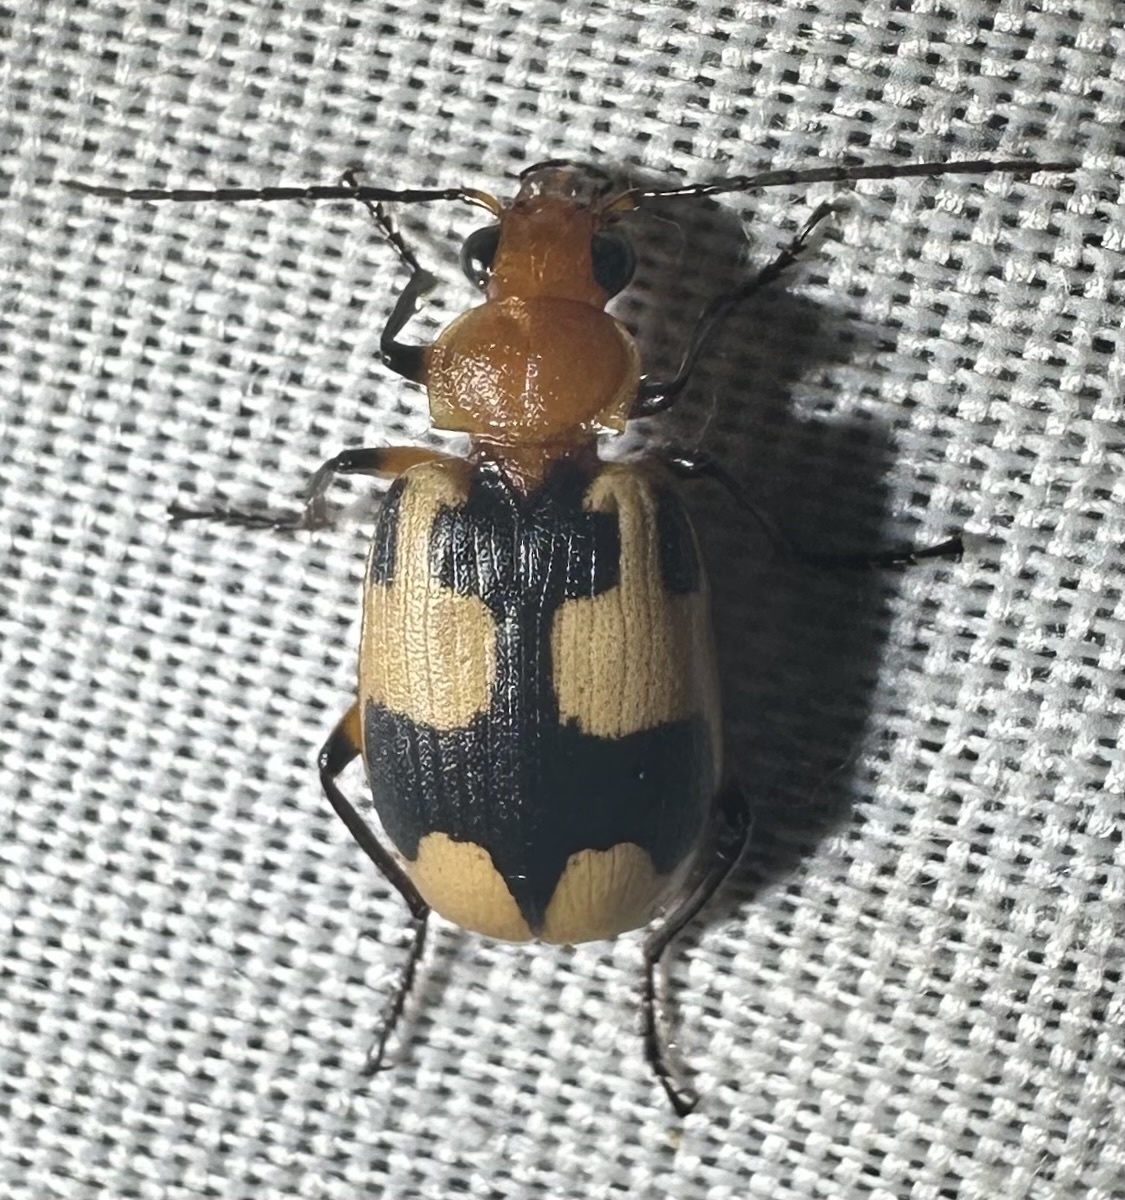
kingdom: Animalia
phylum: Arthropoda
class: Insecta
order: Coleoptera
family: Carabidae
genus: Lebistina
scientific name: Lebistina subcruciata
